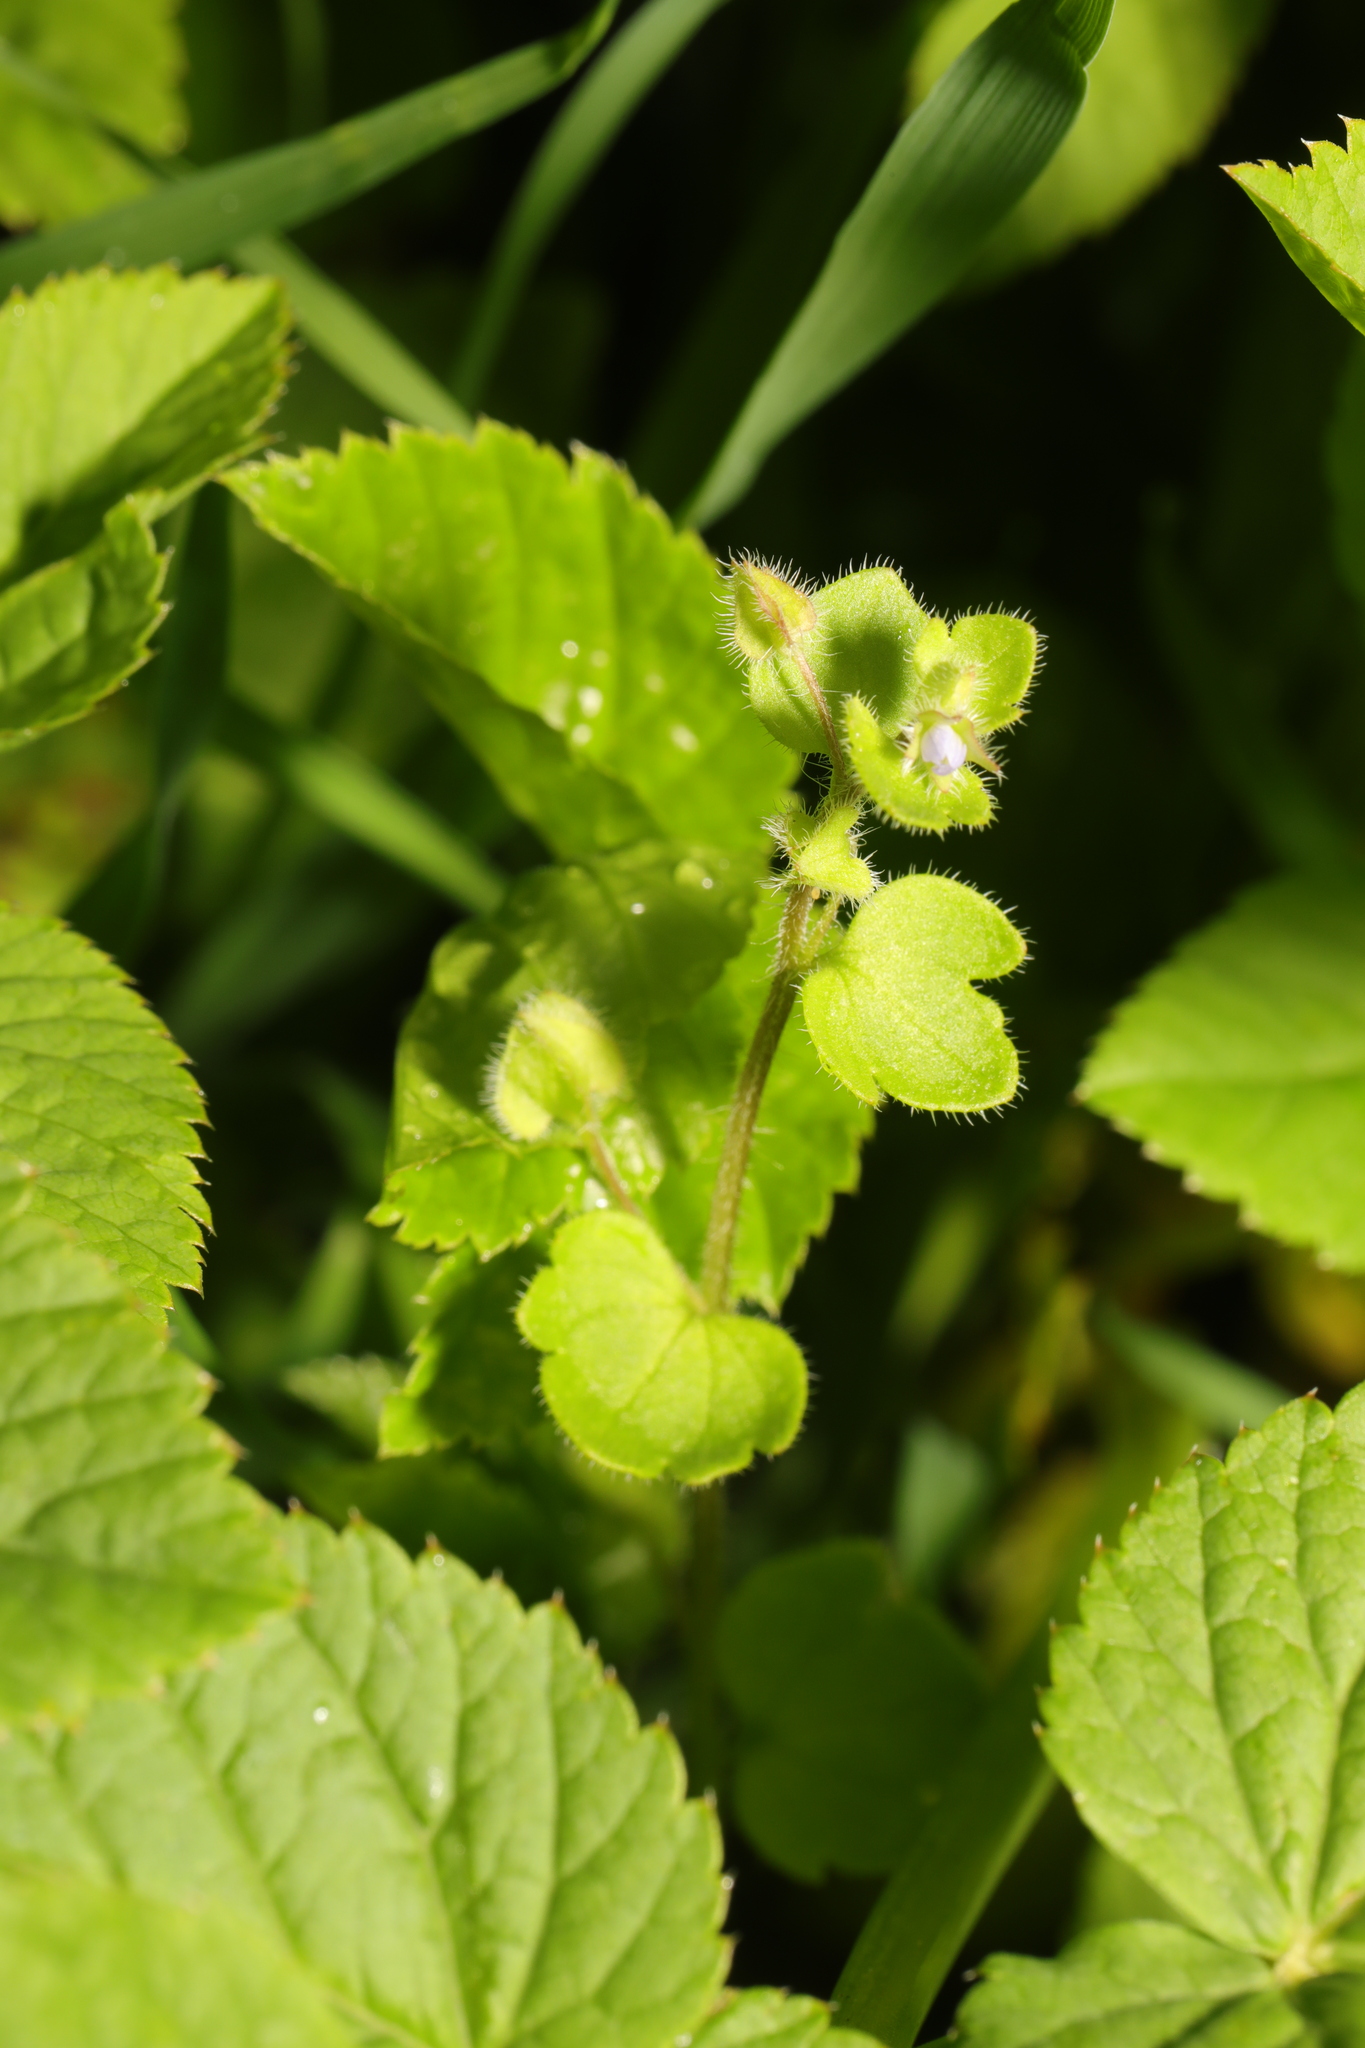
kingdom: Plantae
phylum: Tracheophyta
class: Magnoliopsida
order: Lamiales
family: Plantaginaceae
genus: Veronica
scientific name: Veronica sublobata
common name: False ivy-leaved speedwell
